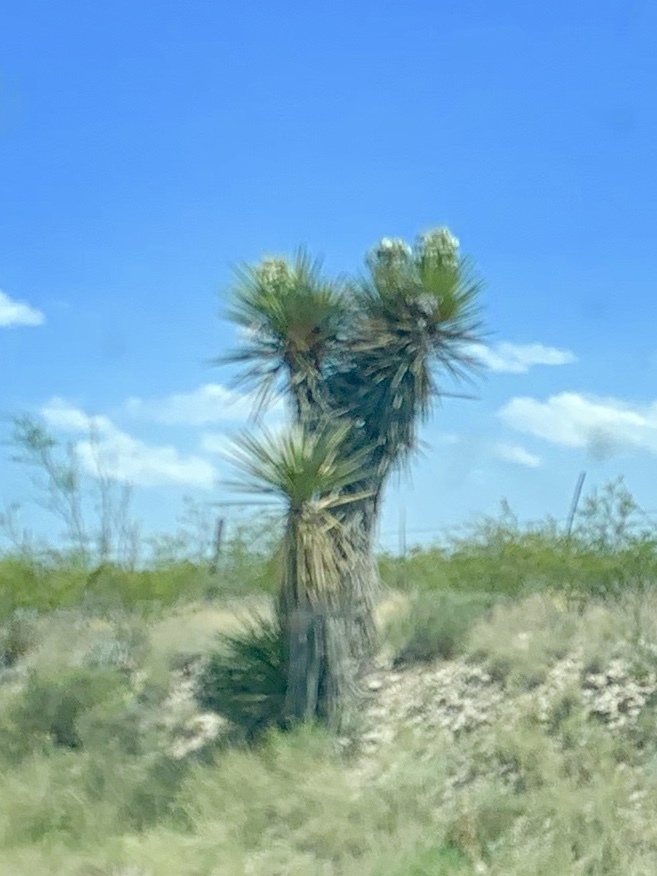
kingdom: Plantae
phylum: Tracheophyta
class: Liliopsida
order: Asparagales
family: Asparagaceae
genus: Yucca
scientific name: Yucca treculiana
